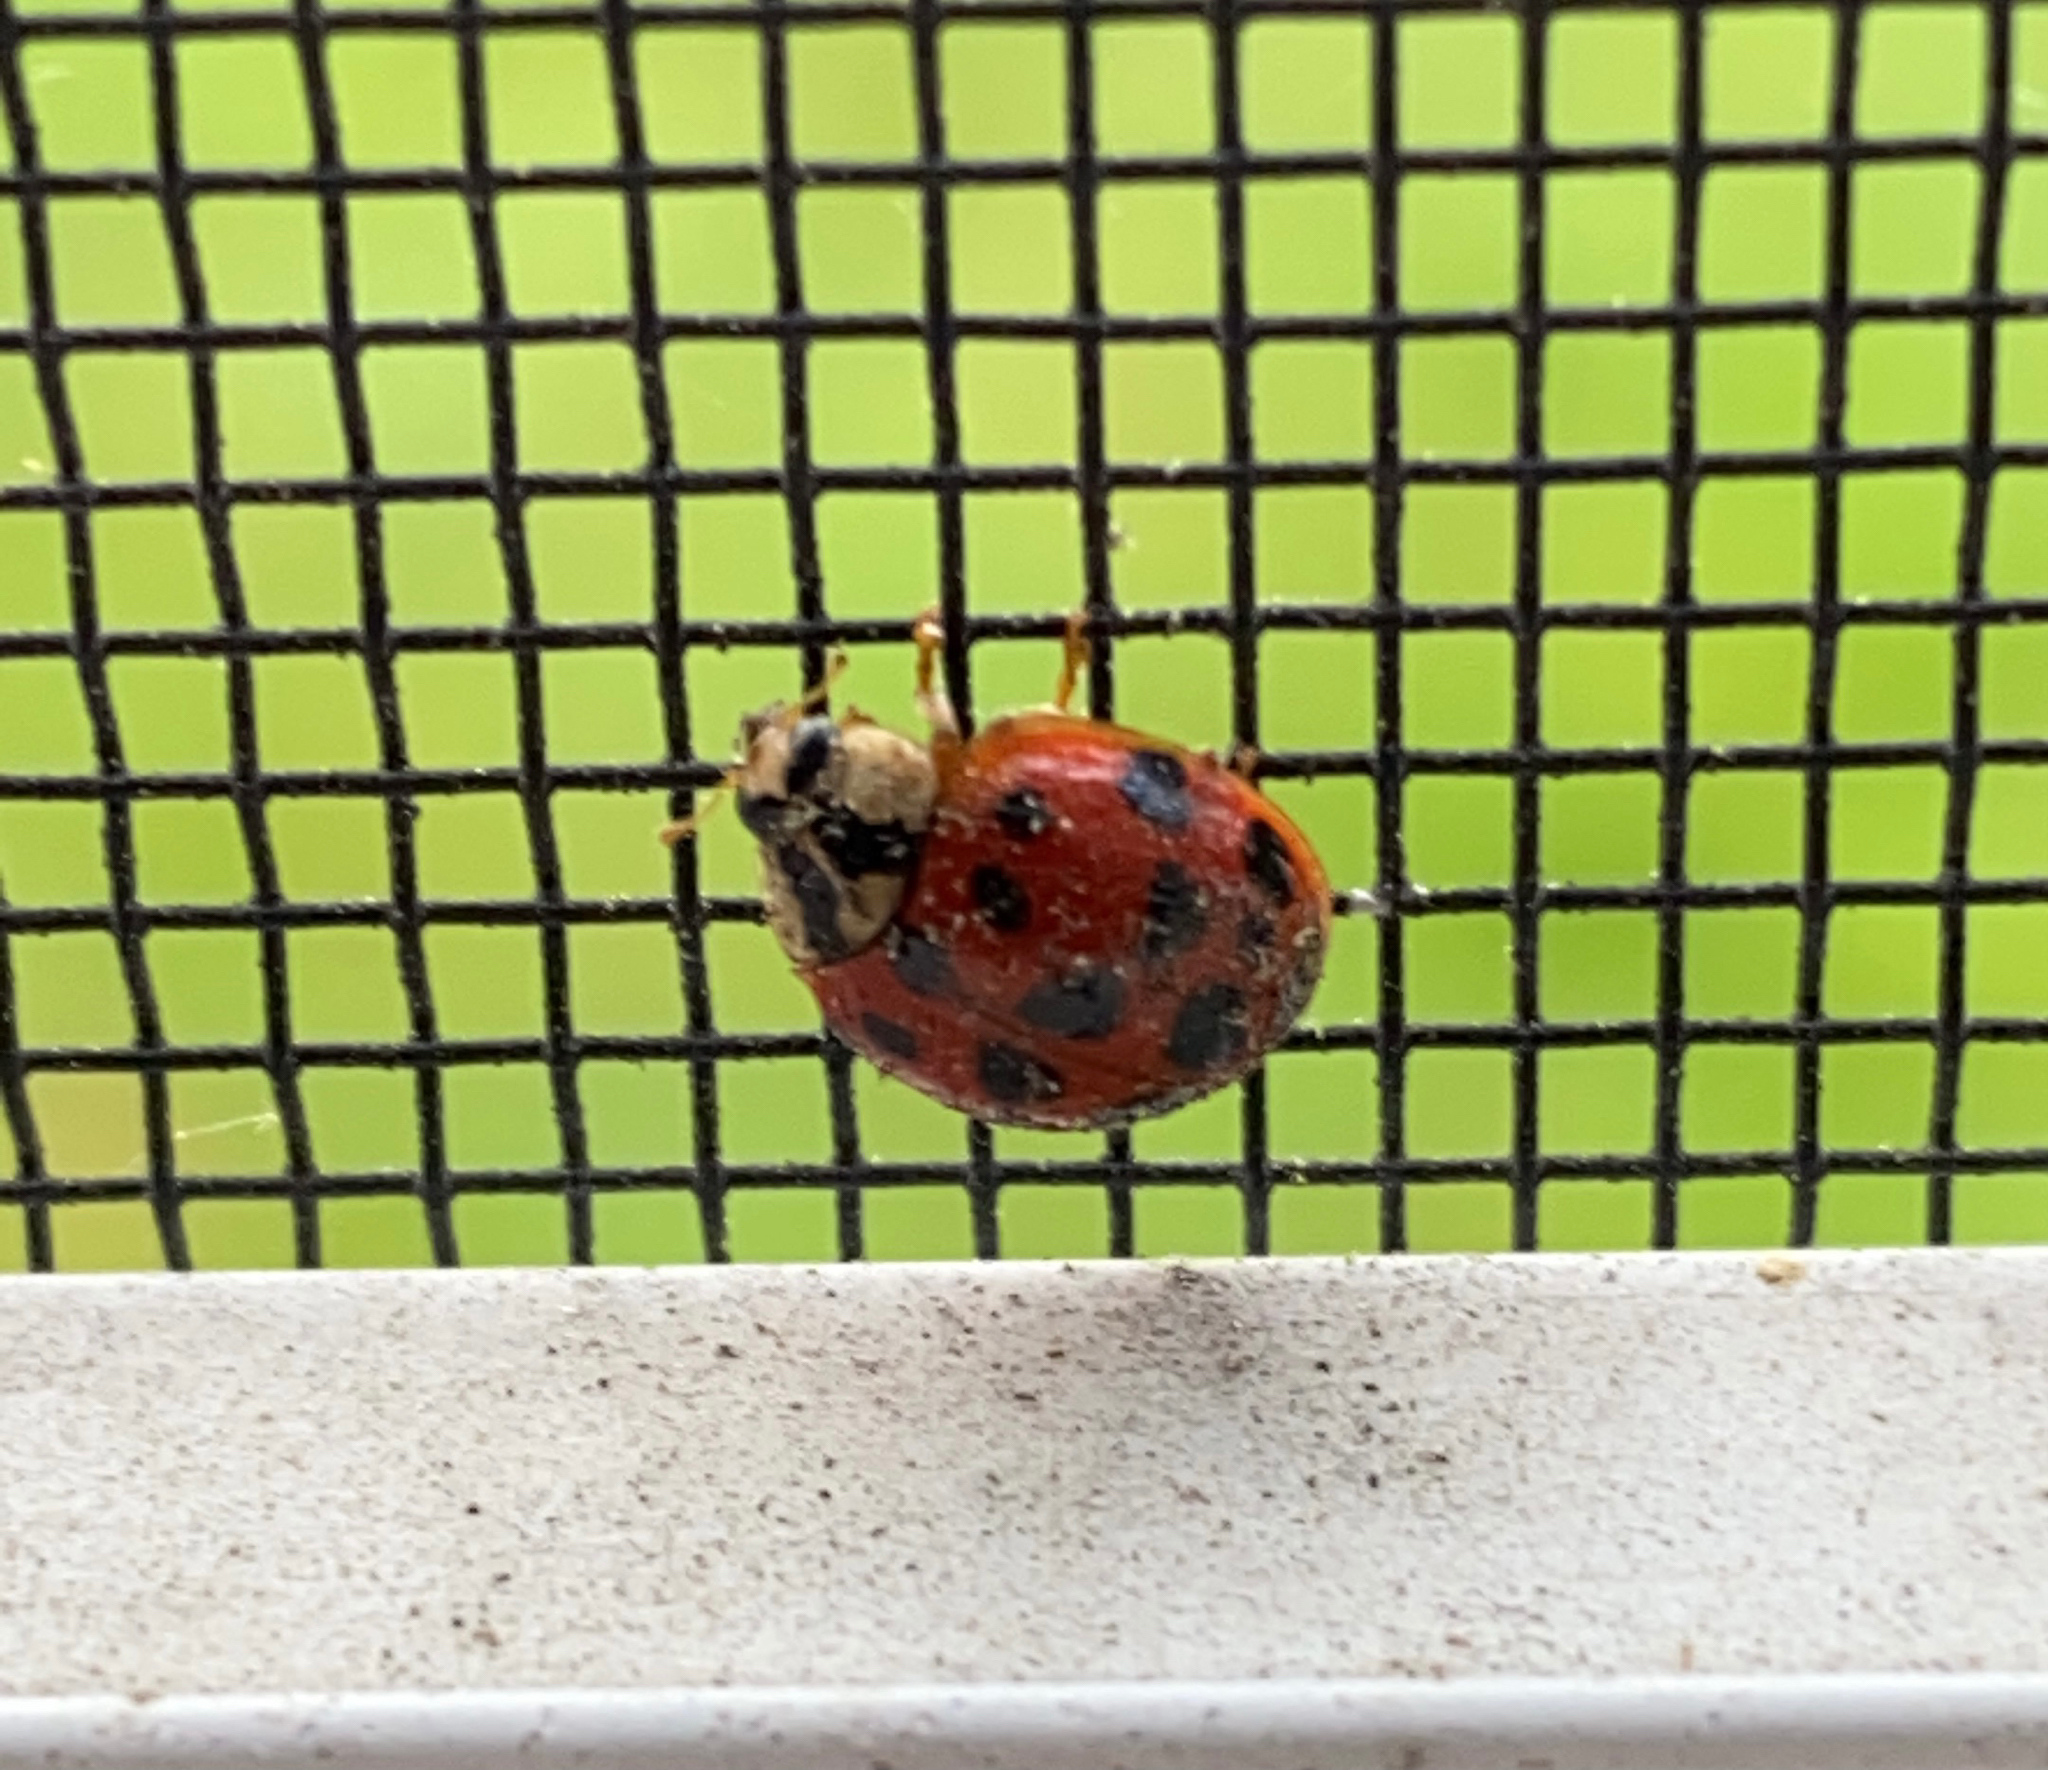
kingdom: Animalia
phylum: Arthropoda
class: Insecta
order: Coleoptera
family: Coccinellidae
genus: Harmonia
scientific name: Harmonia axyridis
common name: Harlequin ladybird
